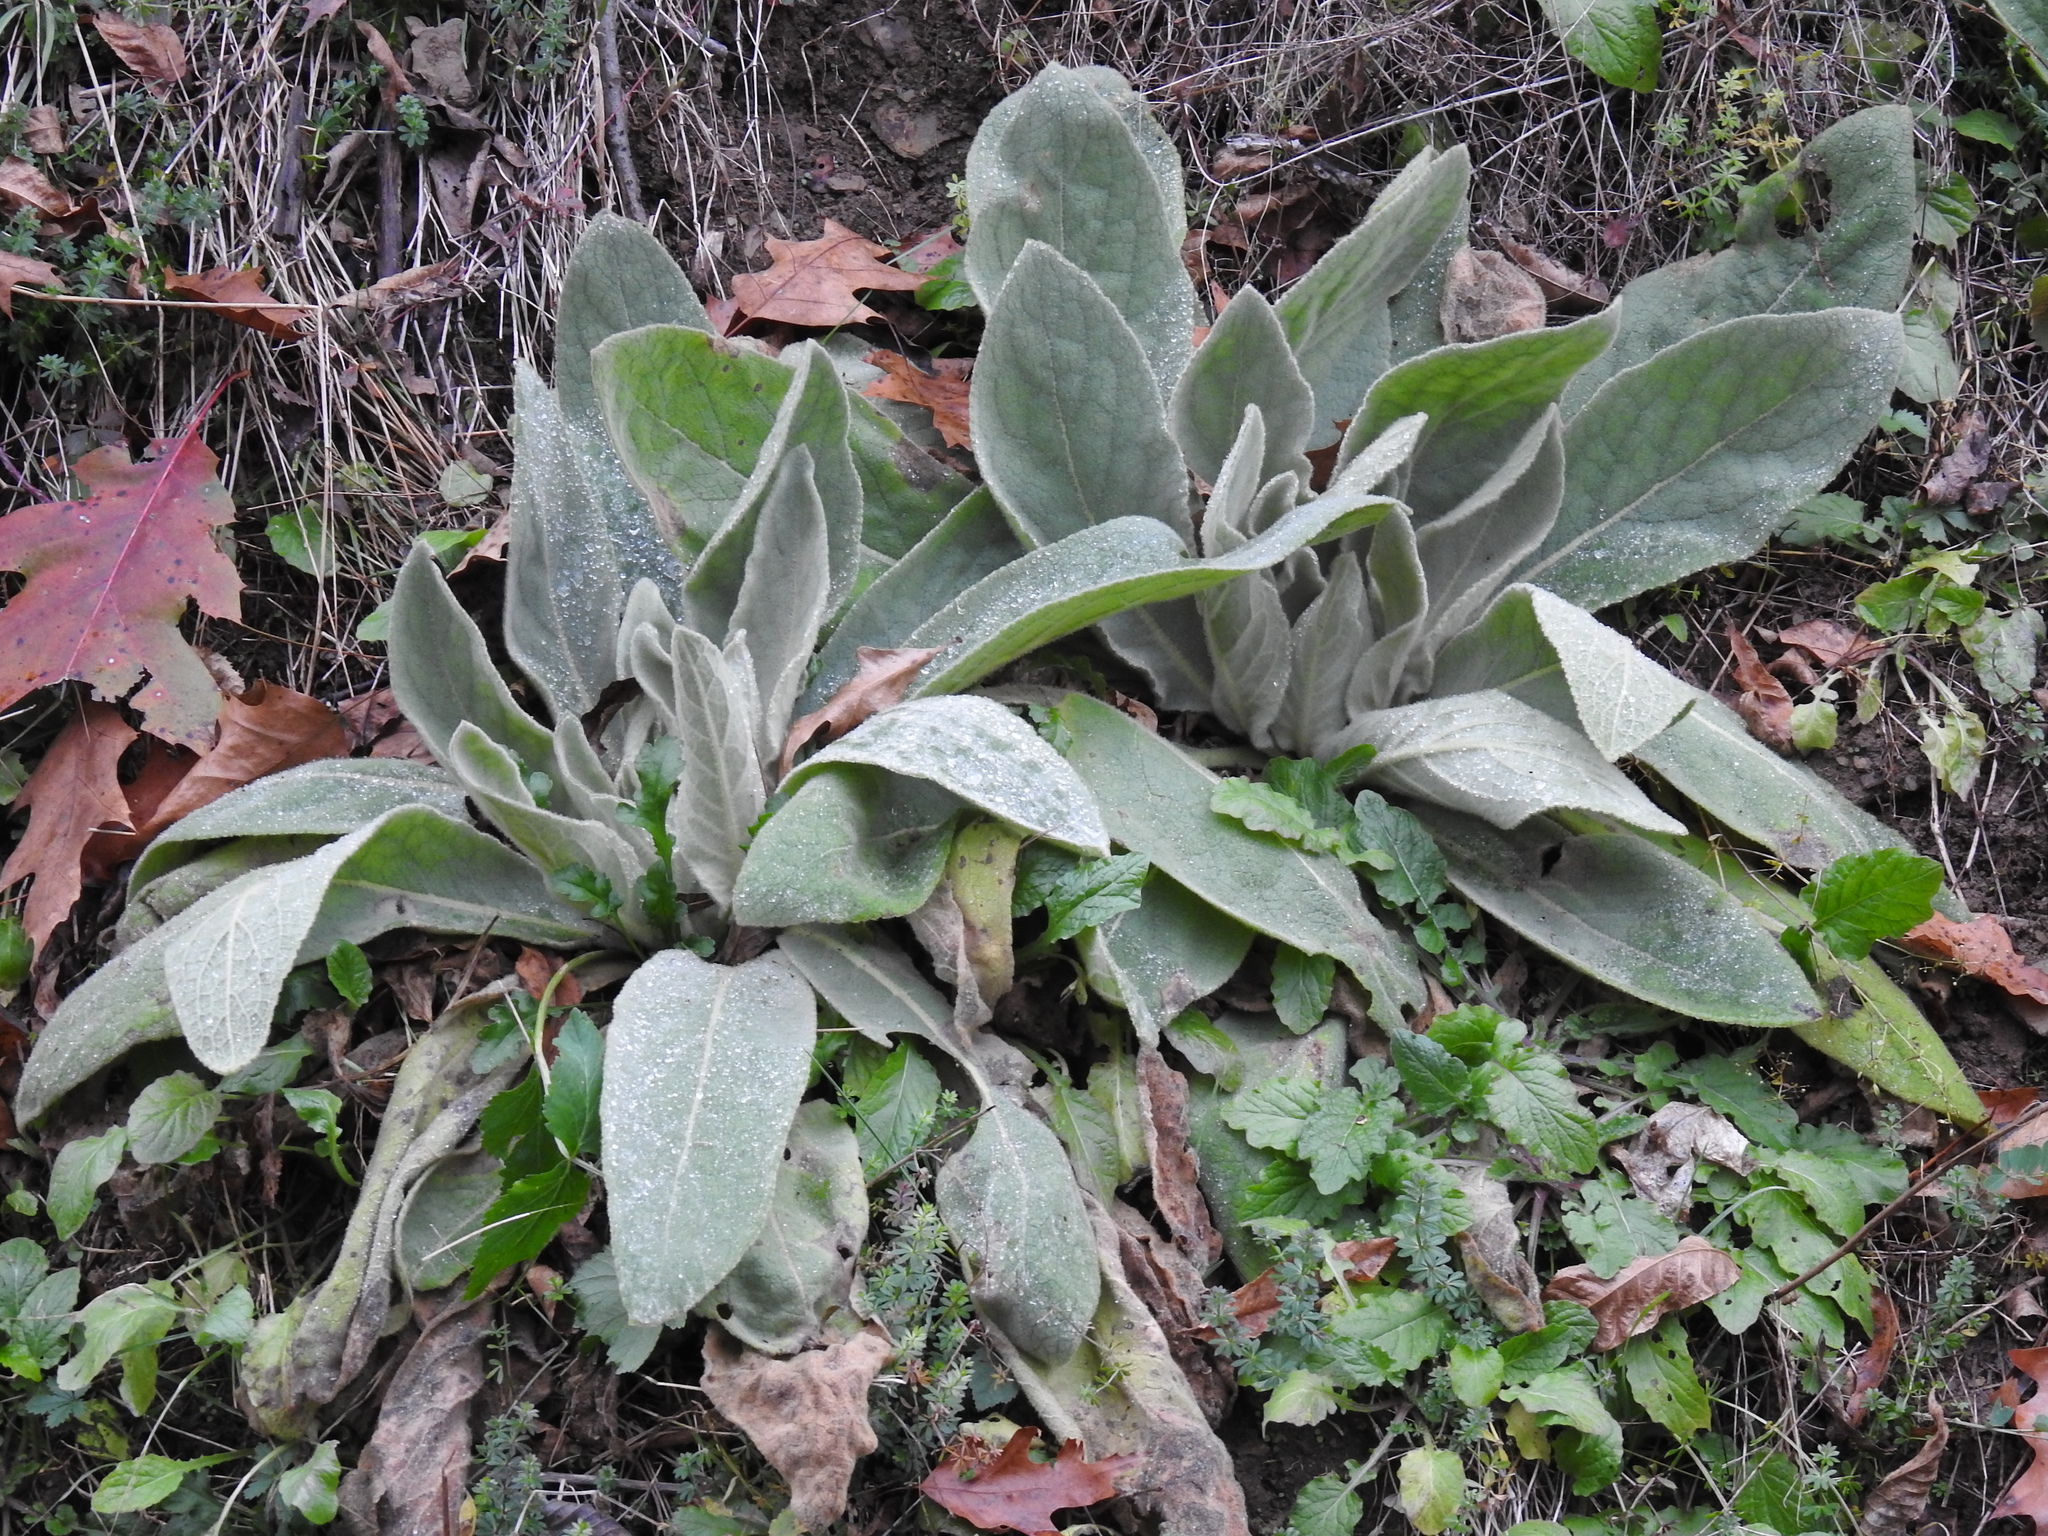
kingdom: Plantae
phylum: Tracheophyta
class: Magnoliopsida
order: Lamiales
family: Scrophulariaceae
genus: Verbascum
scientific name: Verbascum thapsus
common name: Common mullein
